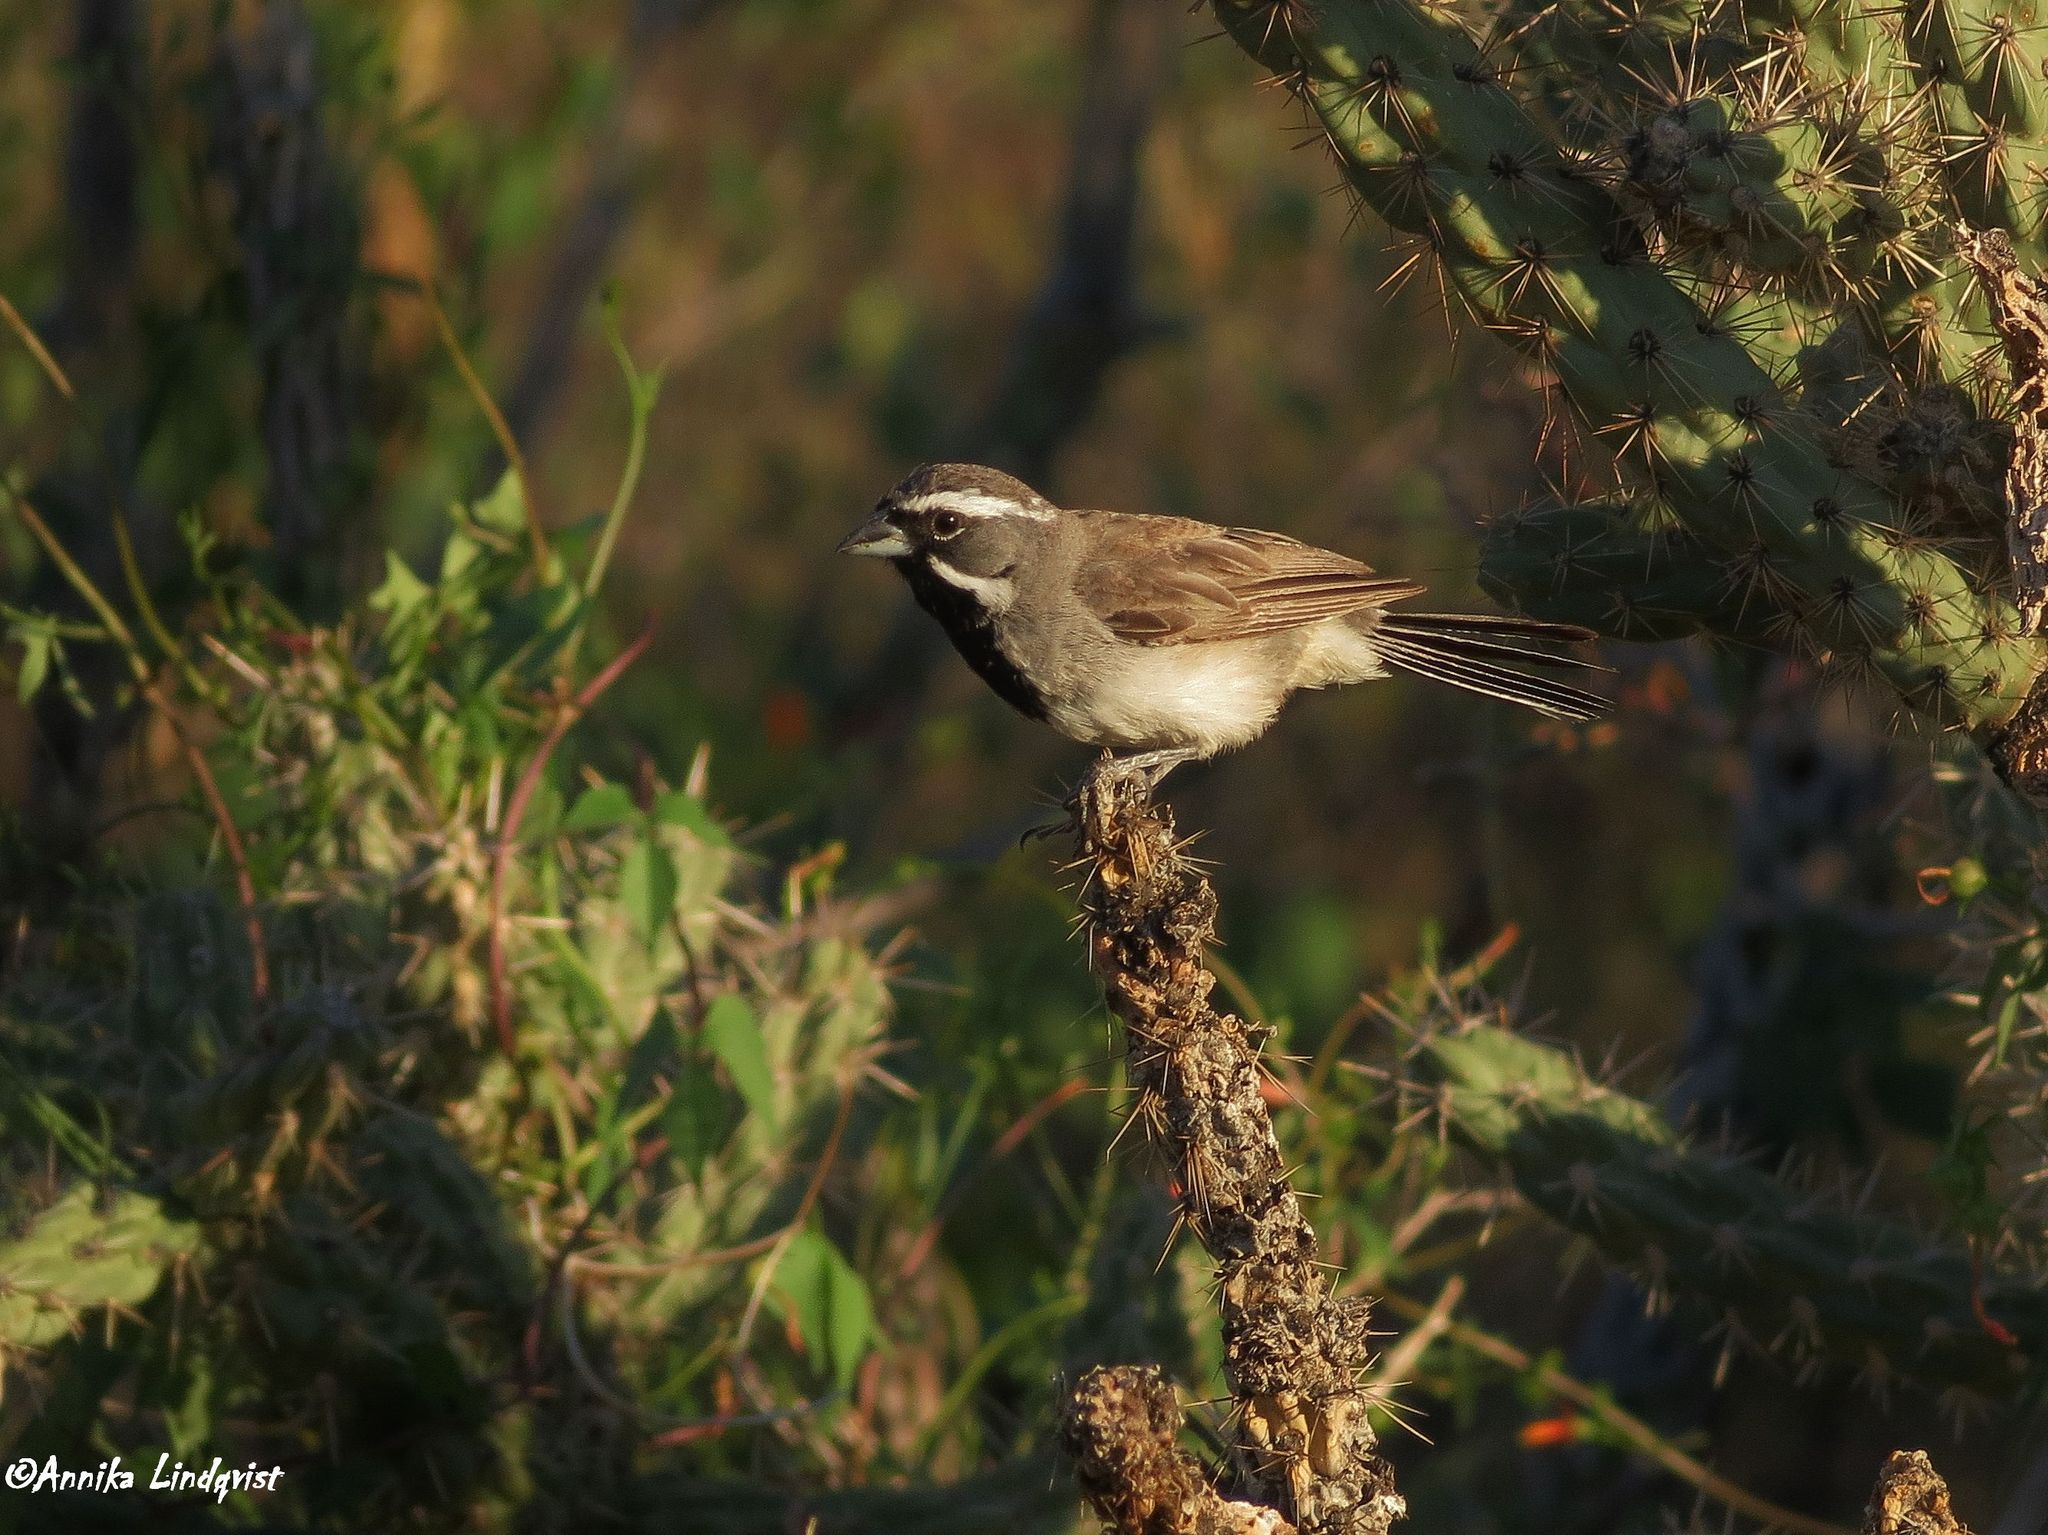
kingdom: Animalia
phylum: Chordata
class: Aves
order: Passeriformes
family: Passerellidae
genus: Amphispiza
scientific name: Amphispiza bilineata
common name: Black-throated sparrow
